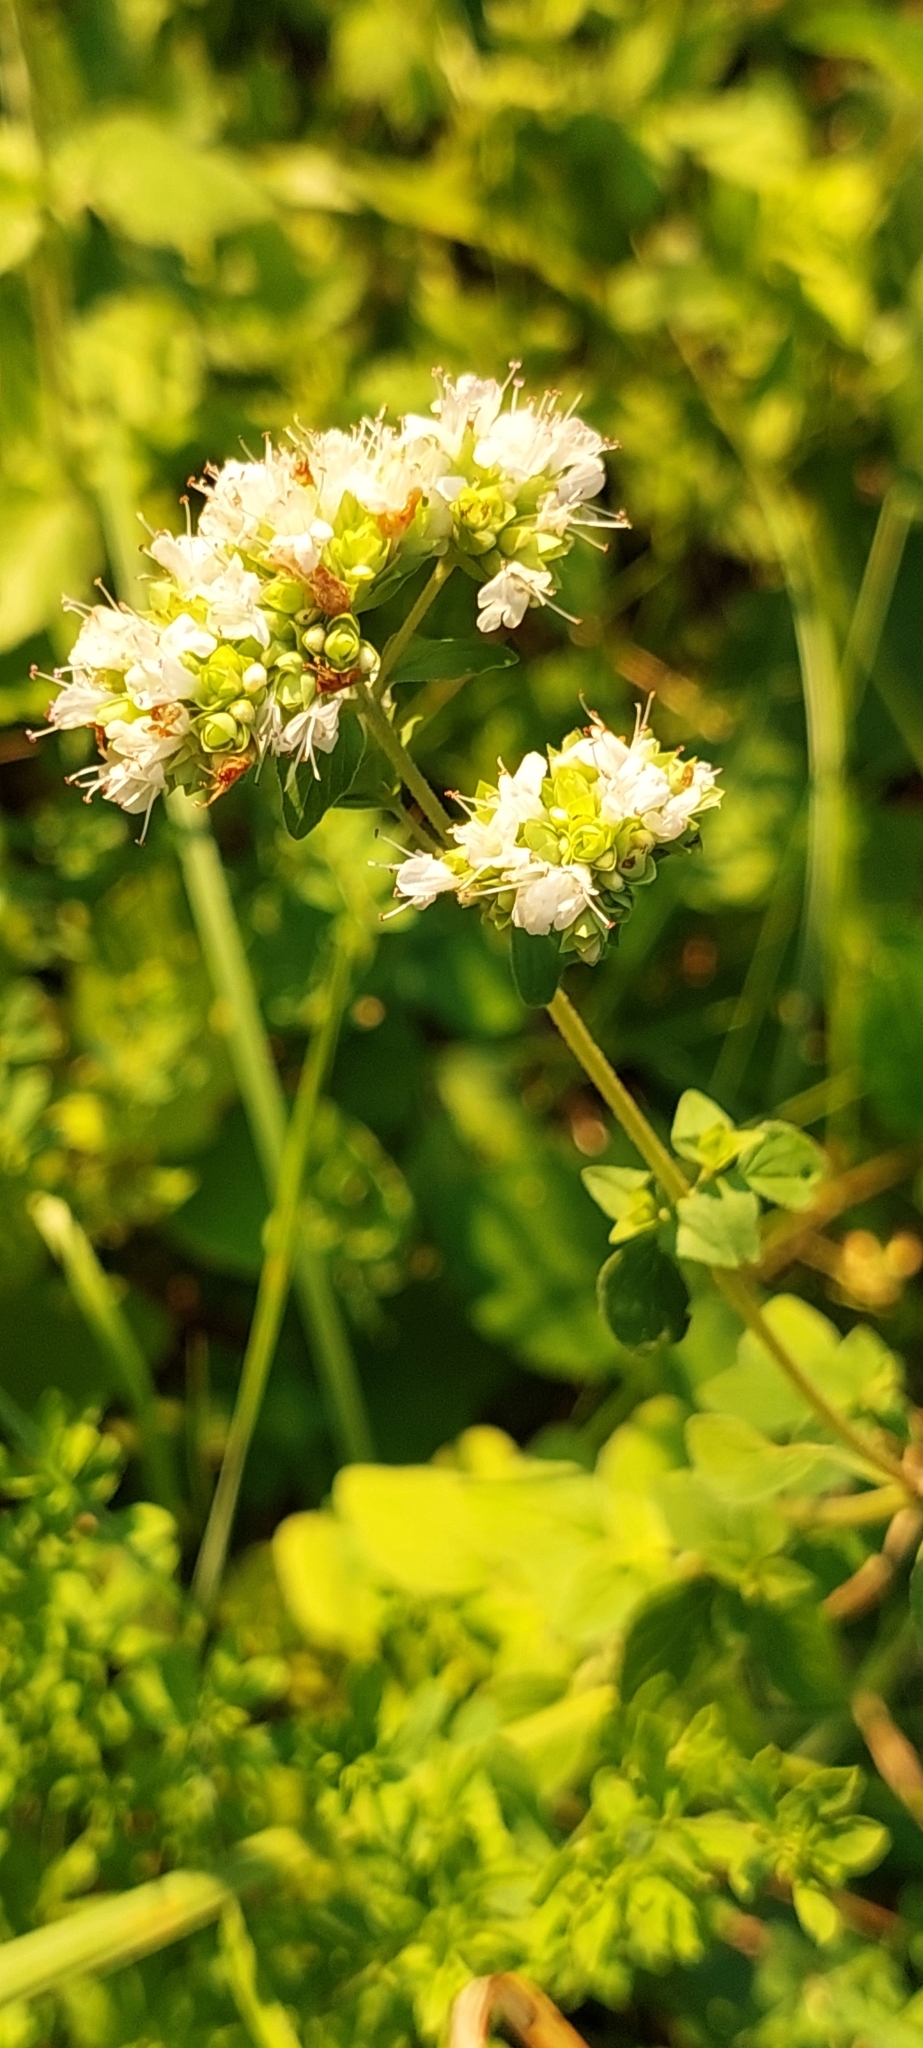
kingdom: Plantae
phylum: Tracheophyta
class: Magnoliopsida
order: Lamiales
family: Lamiaceae
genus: Origanum
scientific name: Origanum vulgare
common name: Wild marjoram
